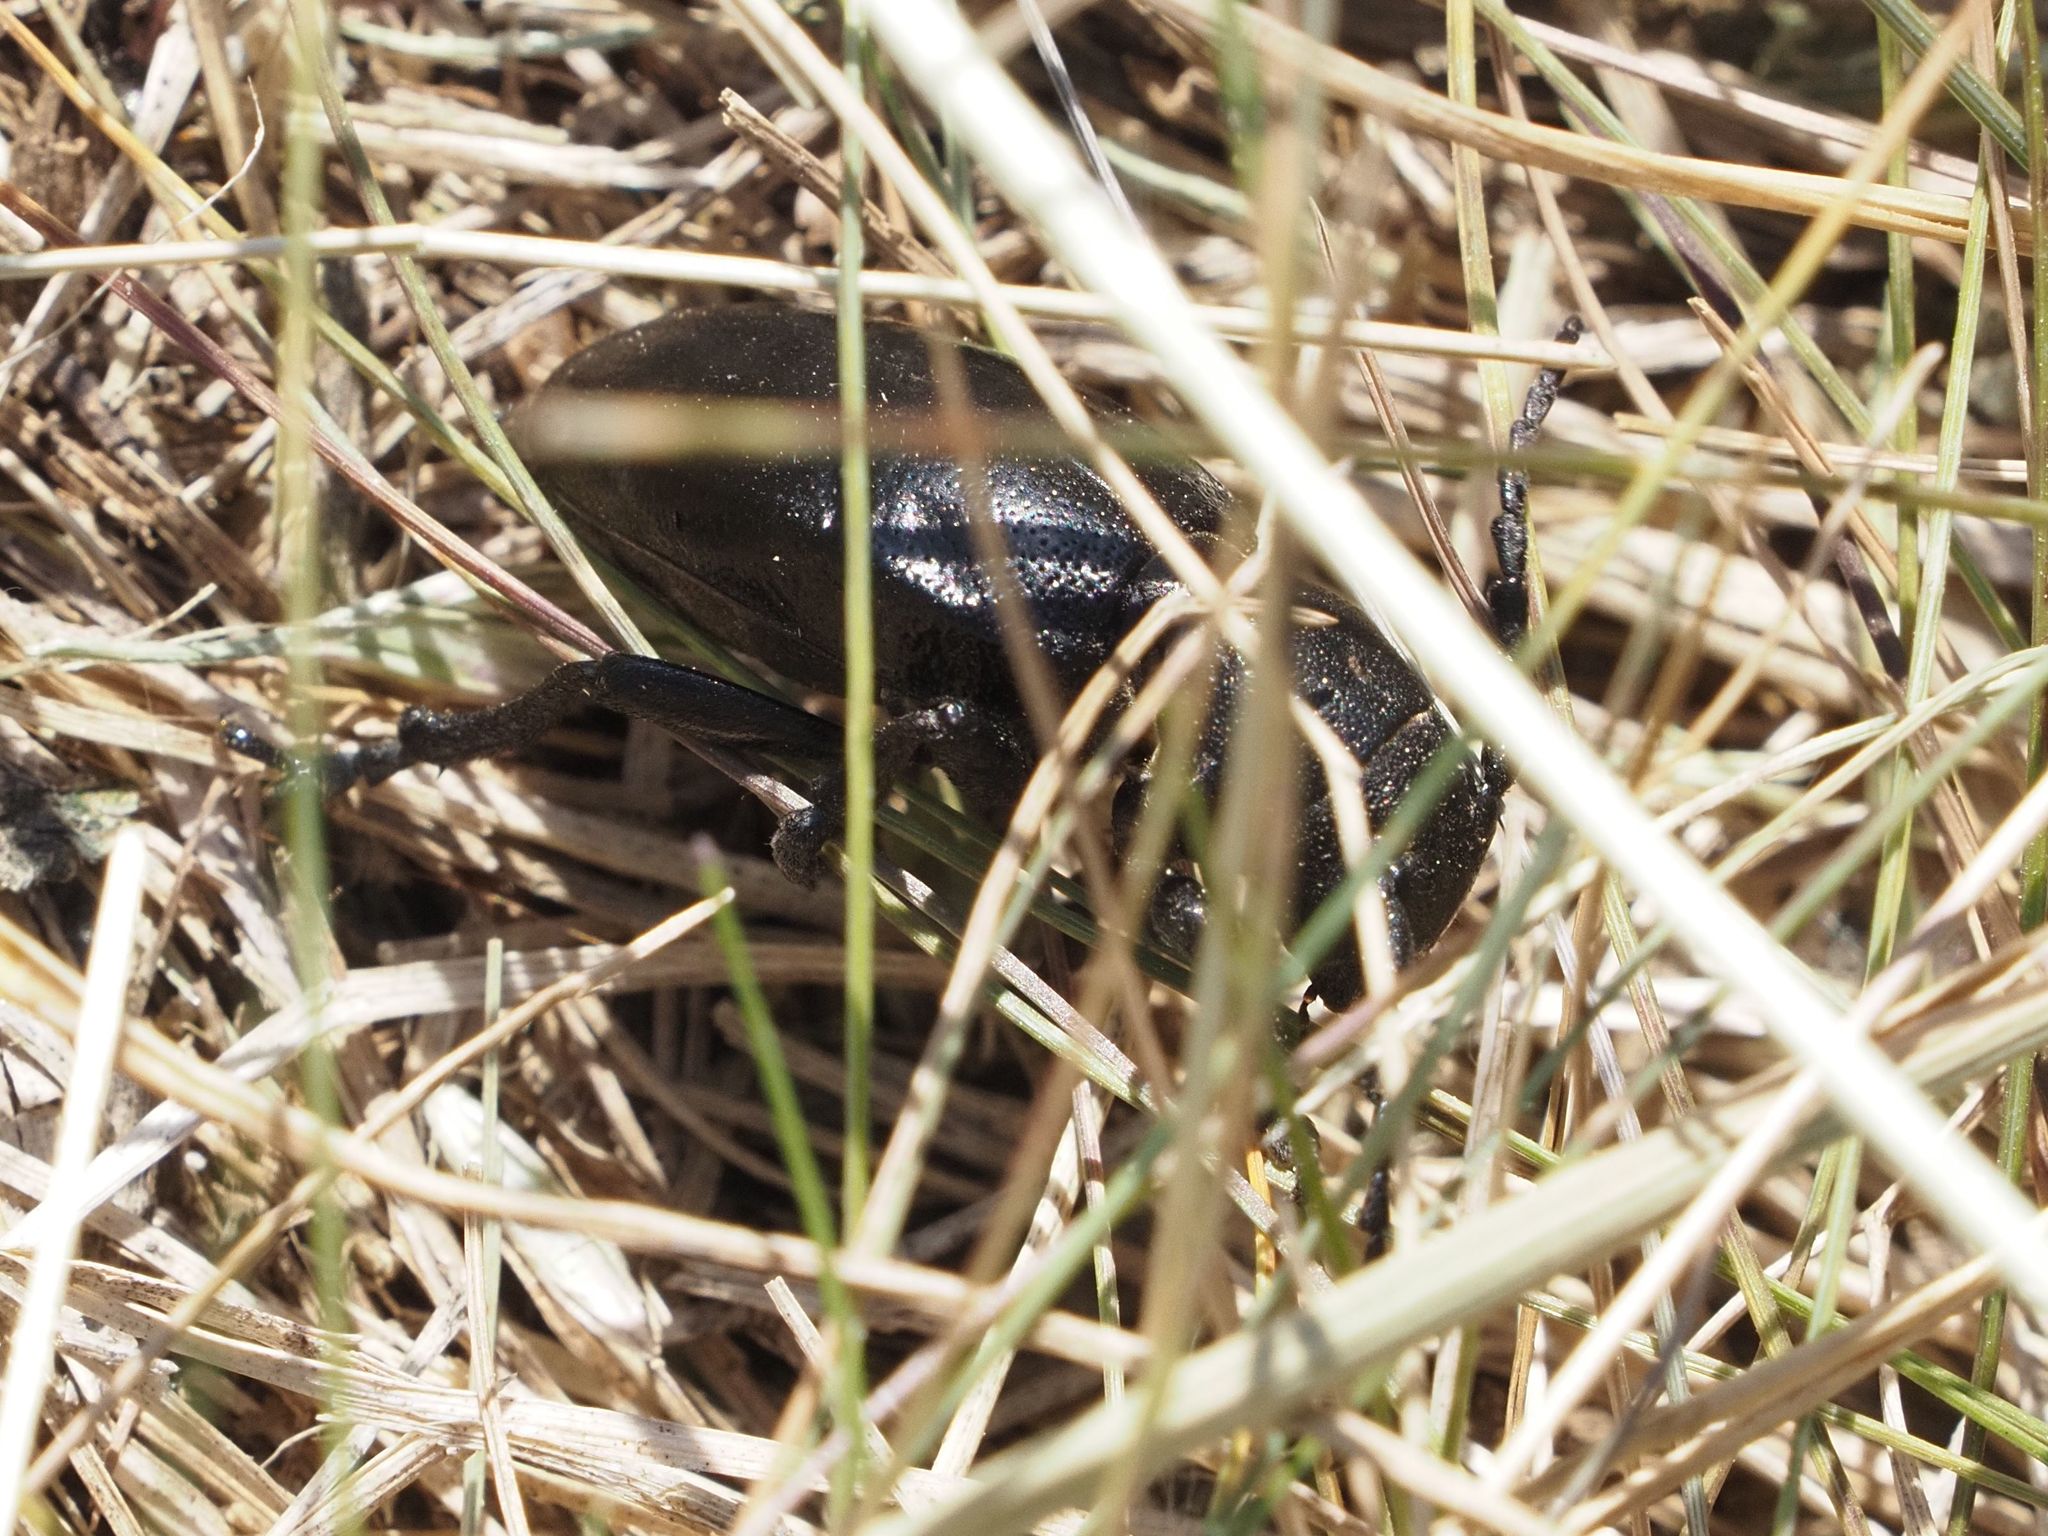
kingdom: Animalia
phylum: Arthropoda
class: Insecta
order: Coleoptera
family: Cerambycidae
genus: Dorcadion
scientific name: Dorcadion aethiops
